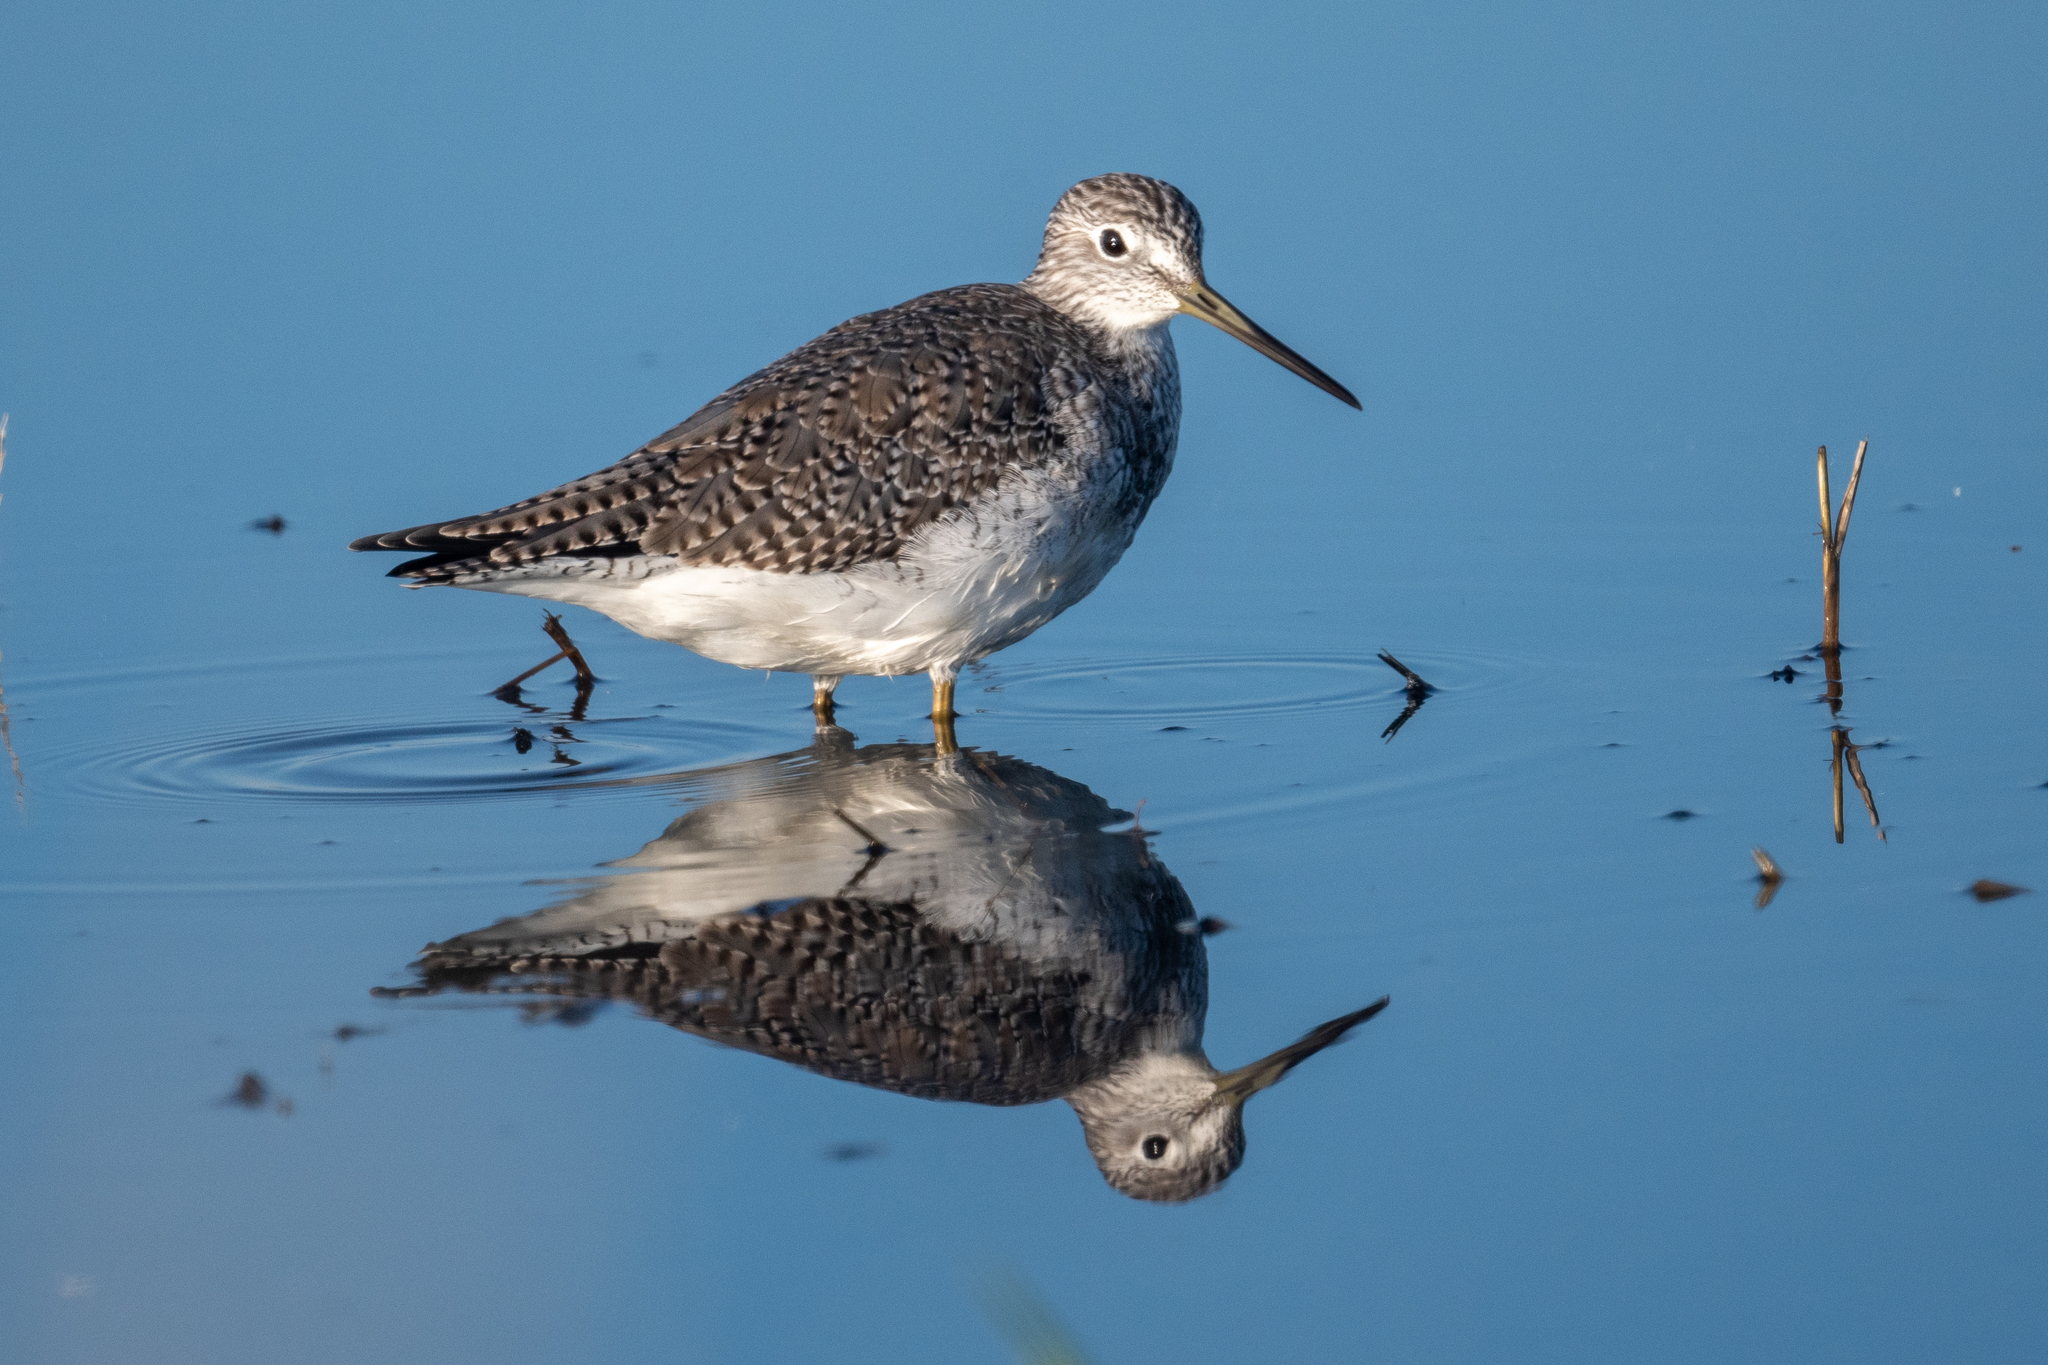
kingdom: Animalia
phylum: Chordata
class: Aves
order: Charadriiformes
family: Scolopacidae
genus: Tringa
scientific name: Tringa melanoleuca
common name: Greater yellowlegs
